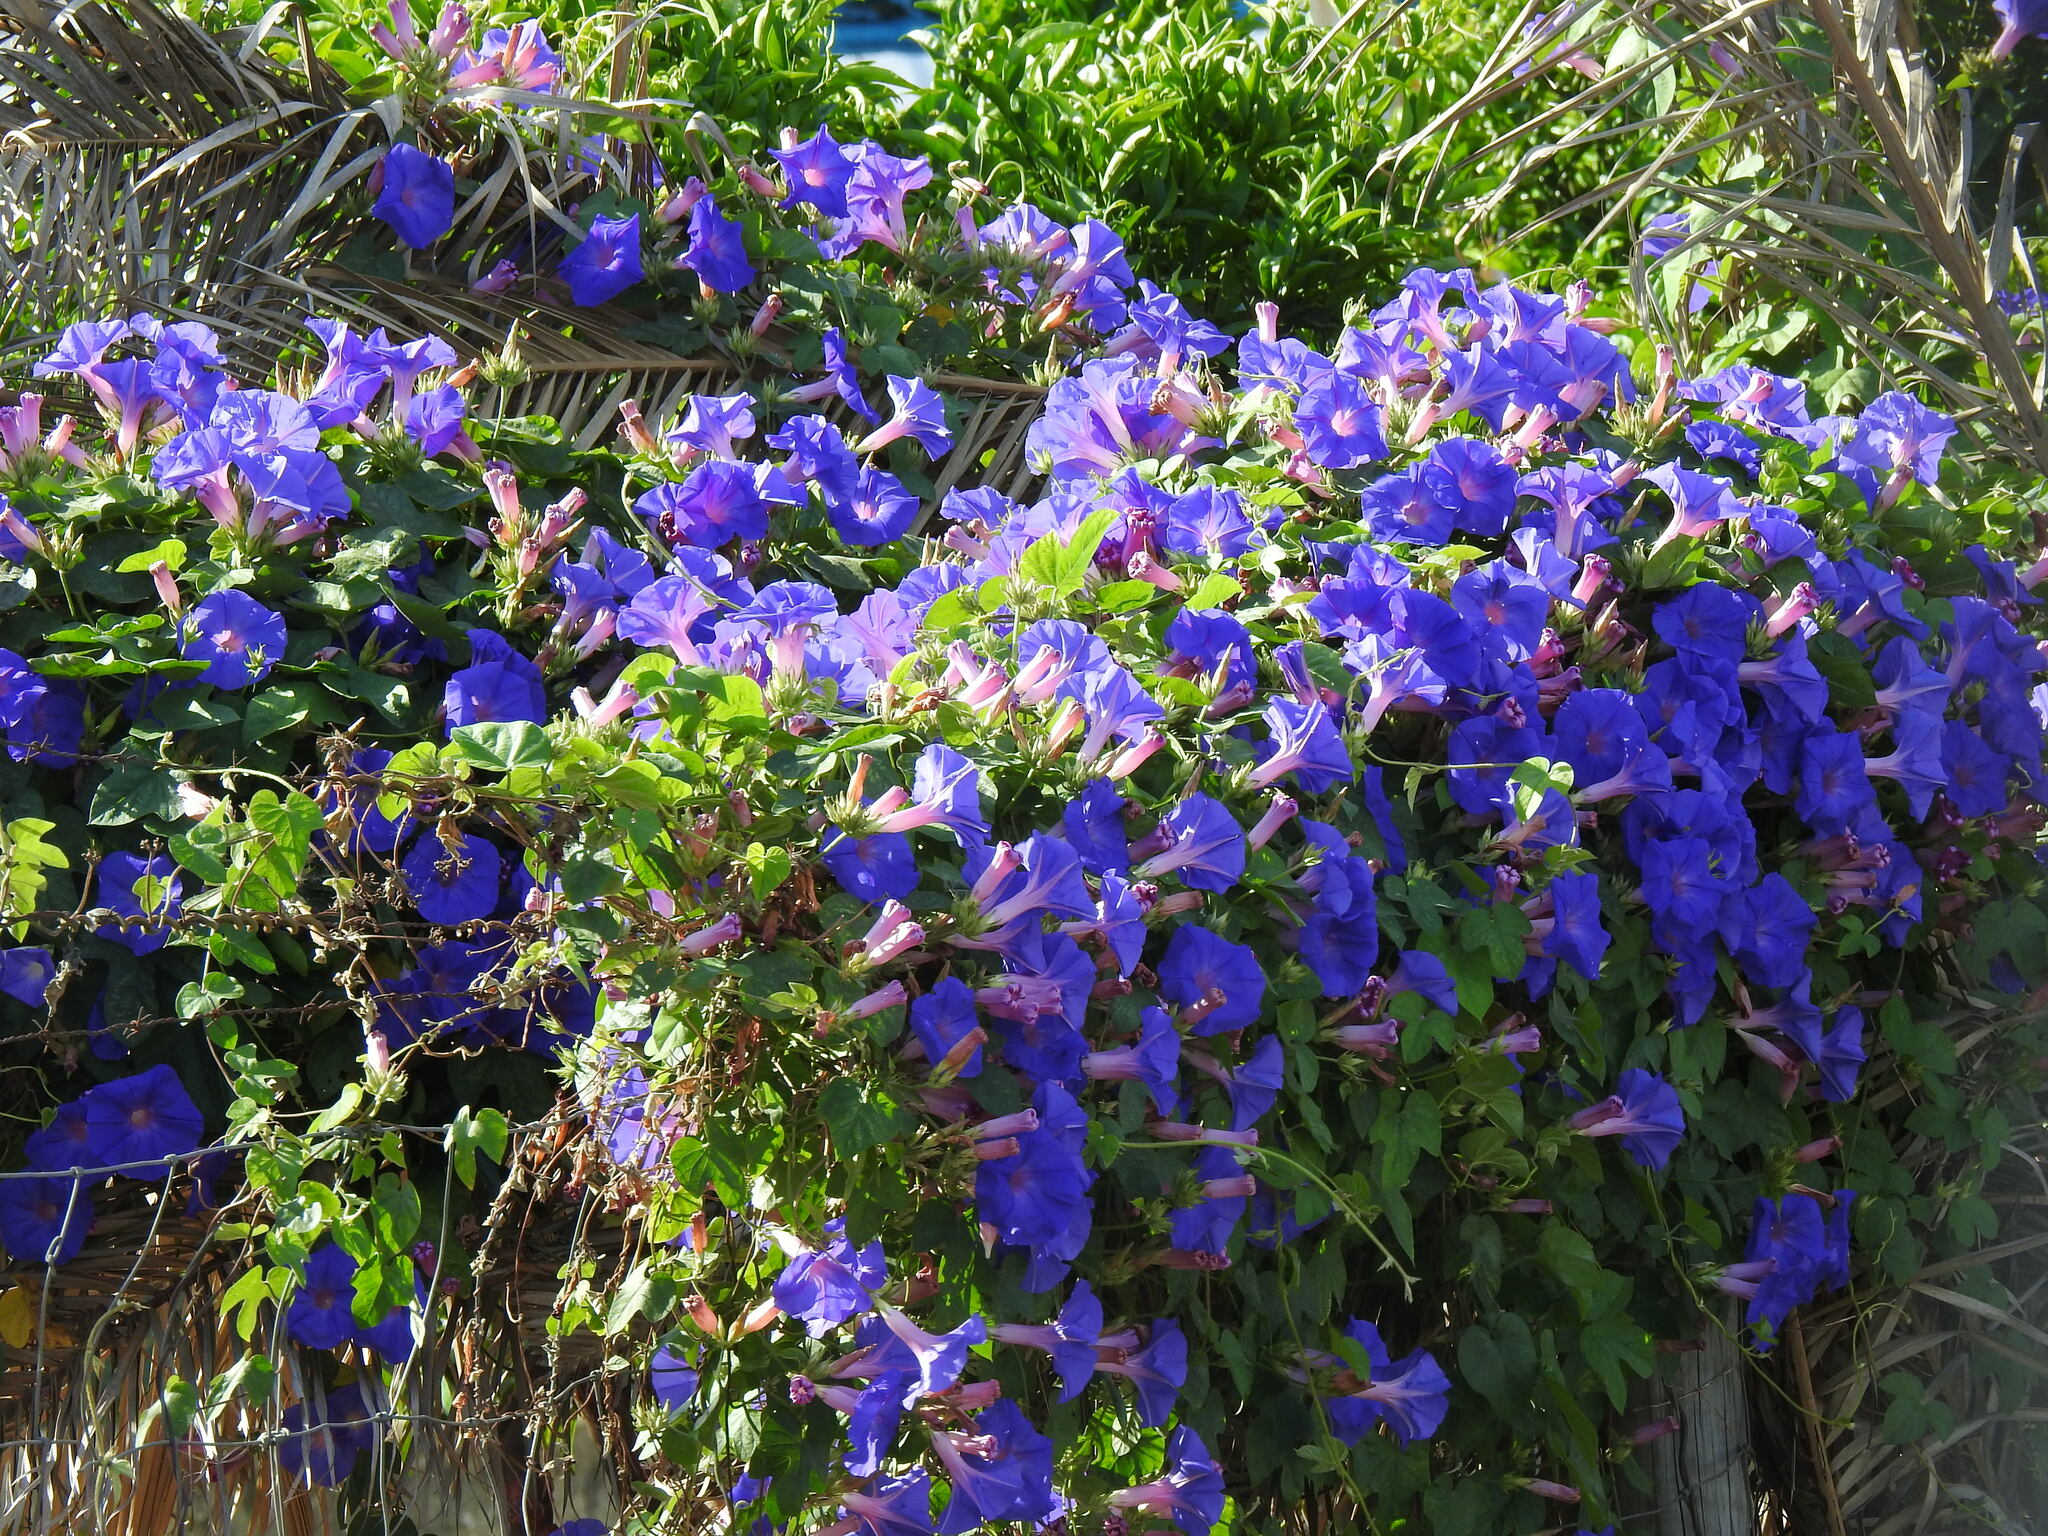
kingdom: Plantae
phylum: Tracheophyta
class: Magnoliopsida
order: Solanales
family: Convolvulaceae
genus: Ipomoea
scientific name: Ipomoea indica
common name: Blue dawnflower
